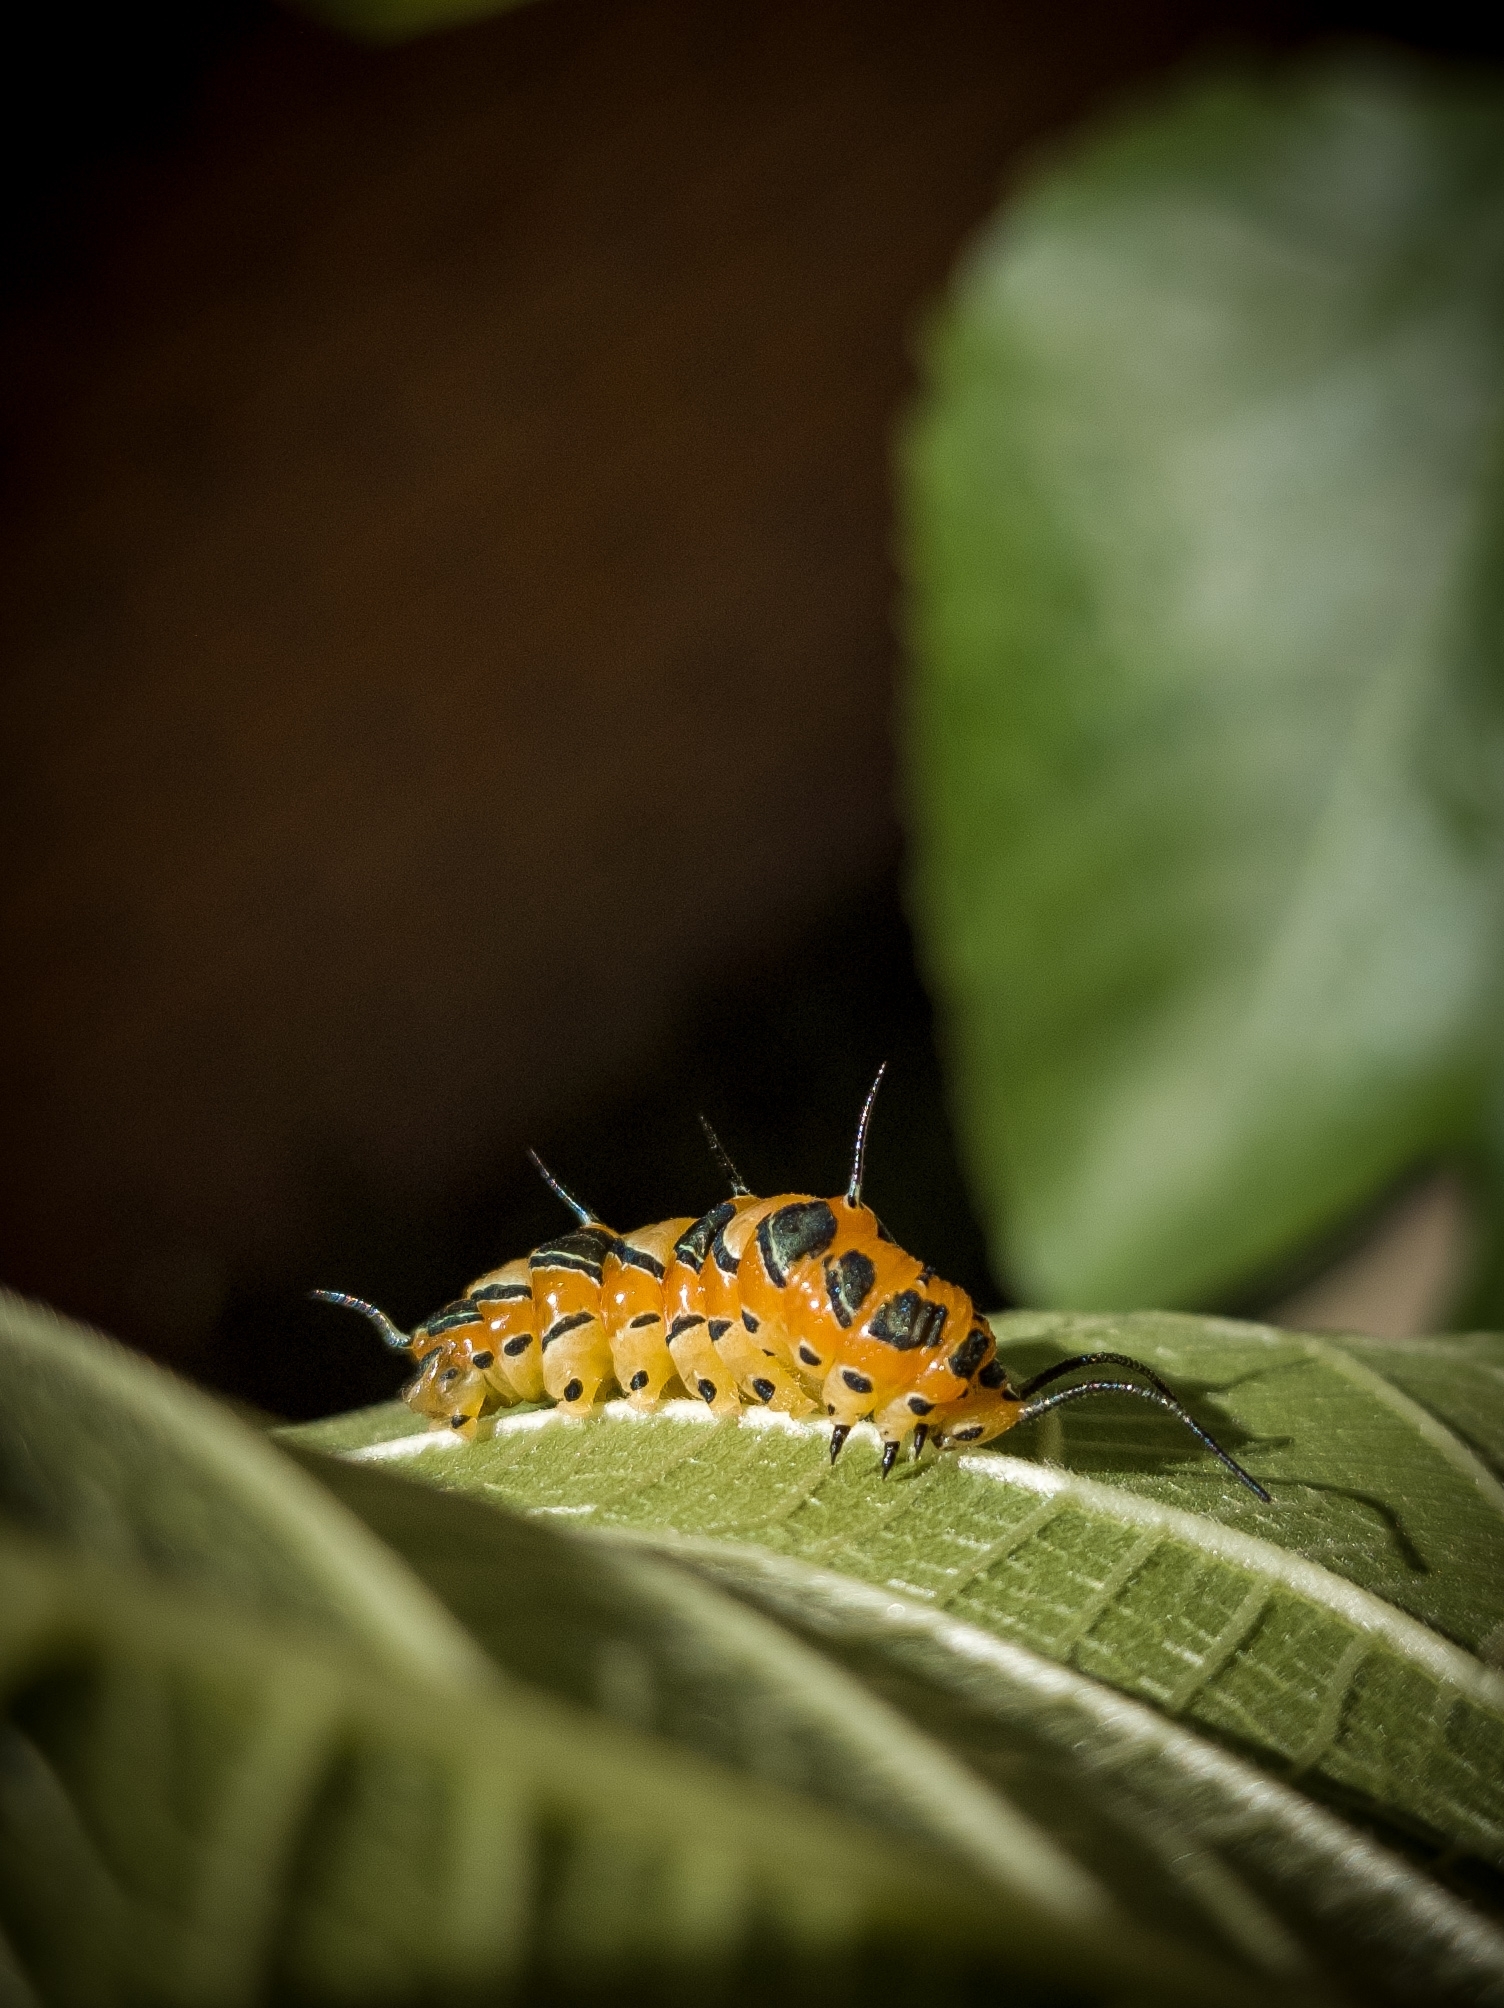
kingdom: Animalia
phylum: Arthropoda
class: Insecta
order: Lepidoptera
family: Nymphalidae
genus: Marpesia
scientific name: Marpesia petreus
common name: Red dagger wing
